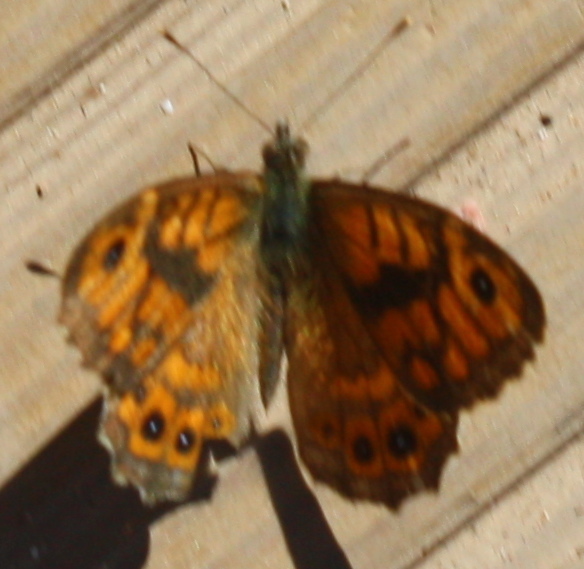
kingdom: Animalia
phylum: Arthropoda
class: Insecta
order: Lepidoptera
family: Nymphalidae
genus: Pararge
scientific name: Pararge Lasiommata megera
